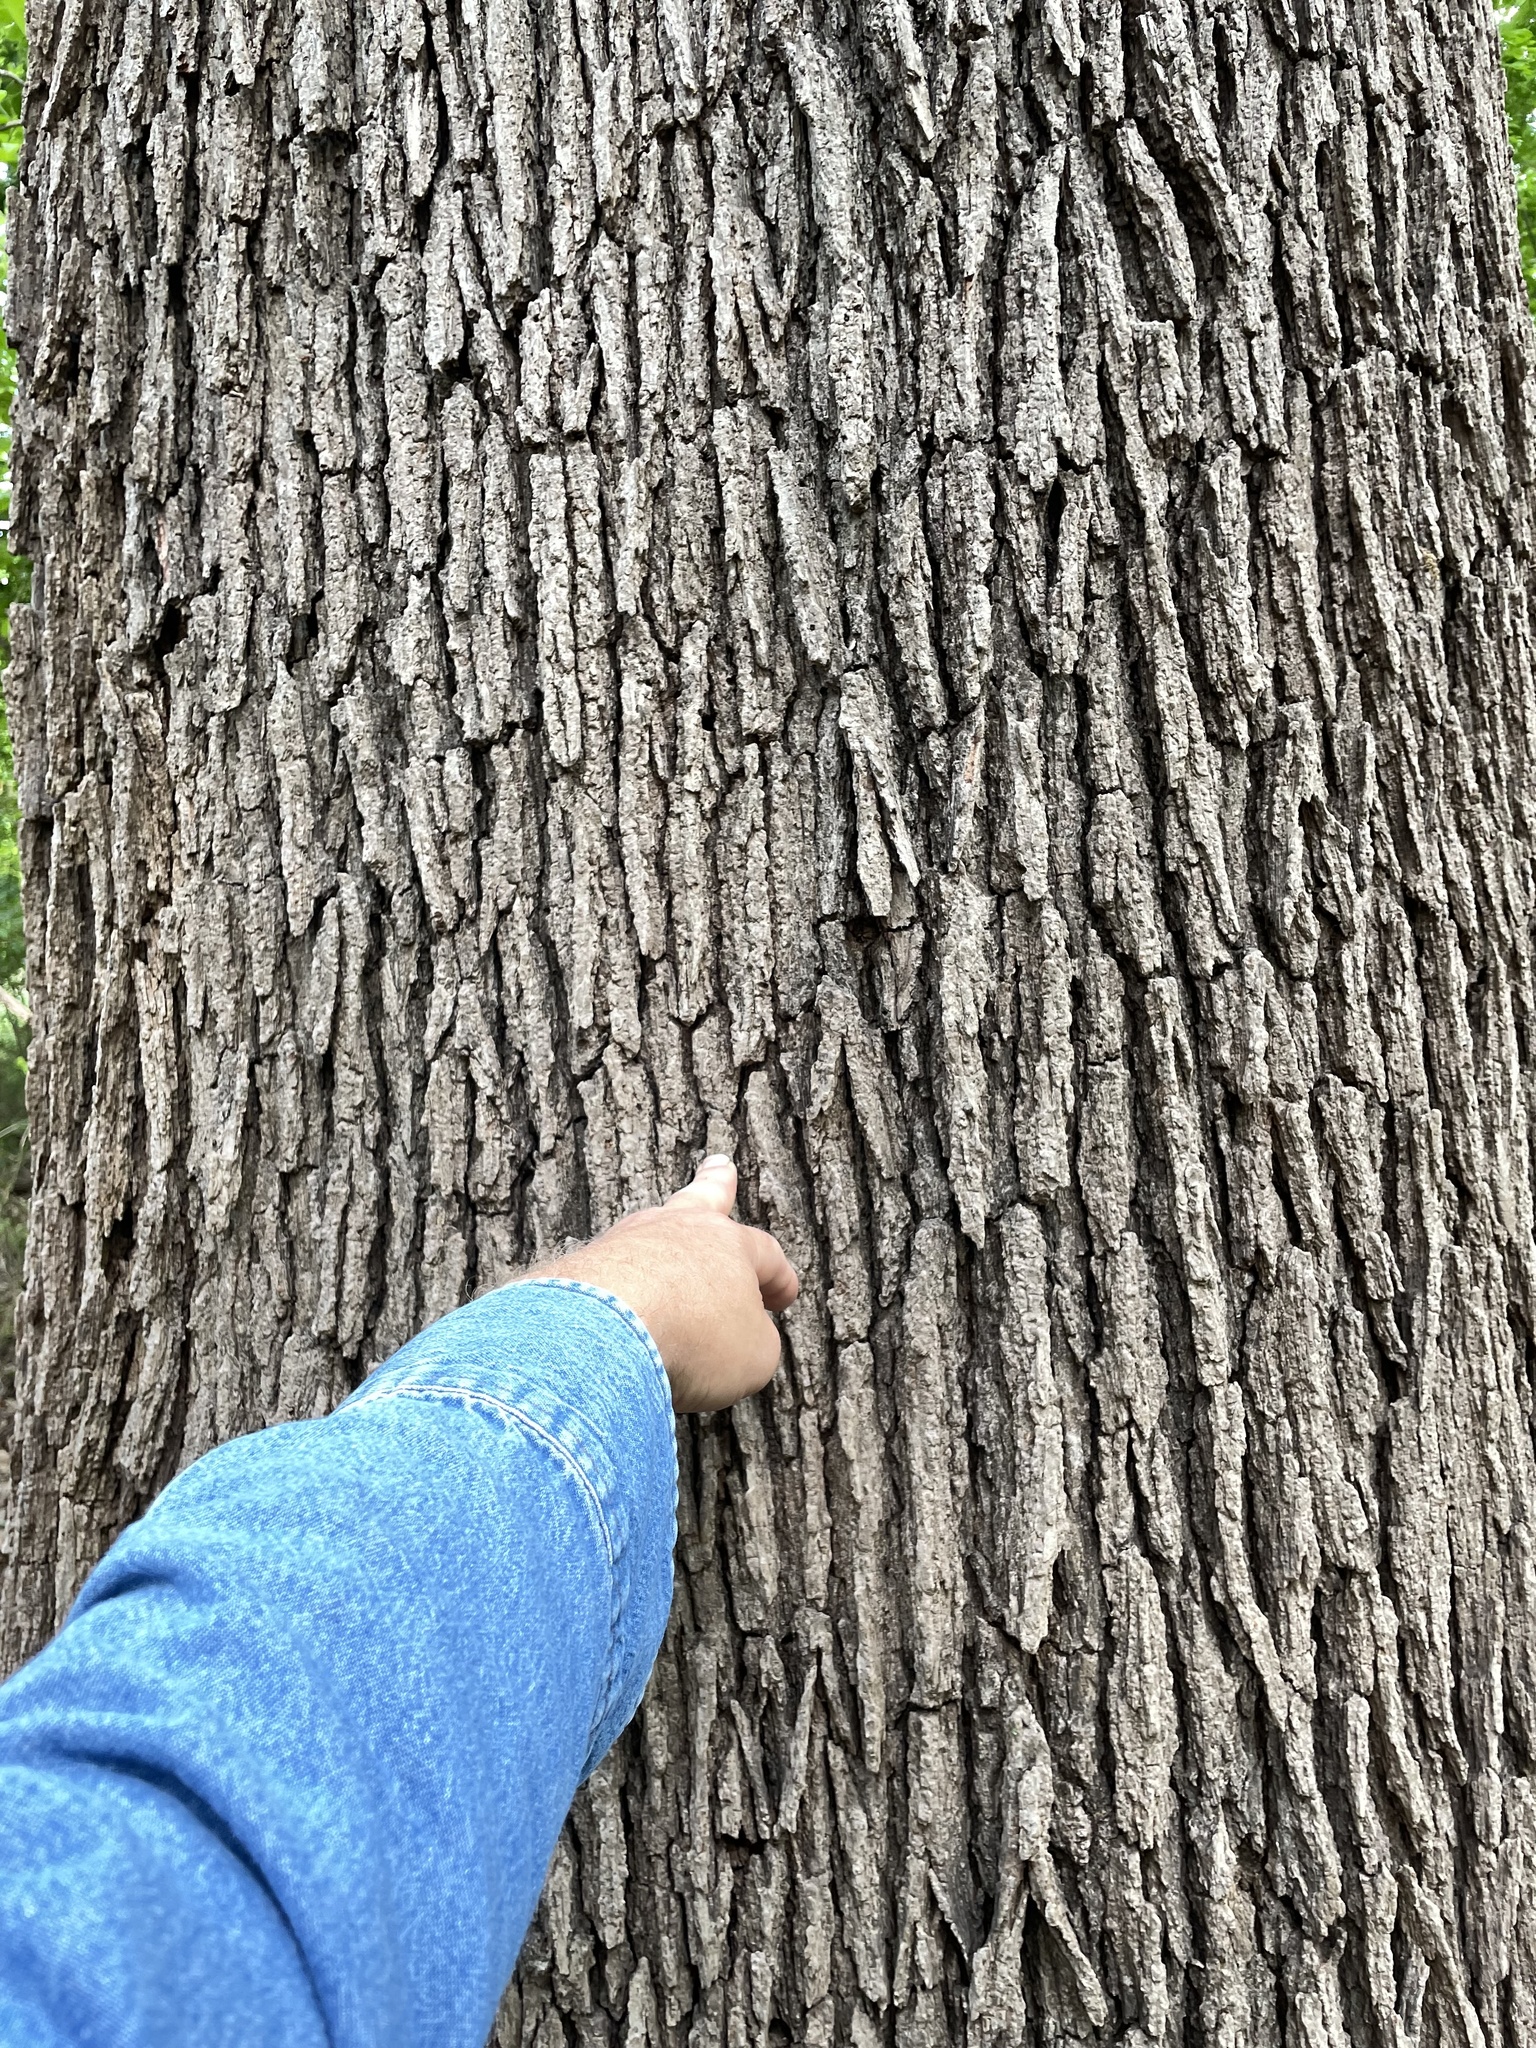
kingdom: Plantae
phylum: Tracheophyta
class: Magnoliopsida
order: Fagales
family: Fagaceae
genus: Quercus
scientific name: Quercus macrocarpa
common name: Bur oak
